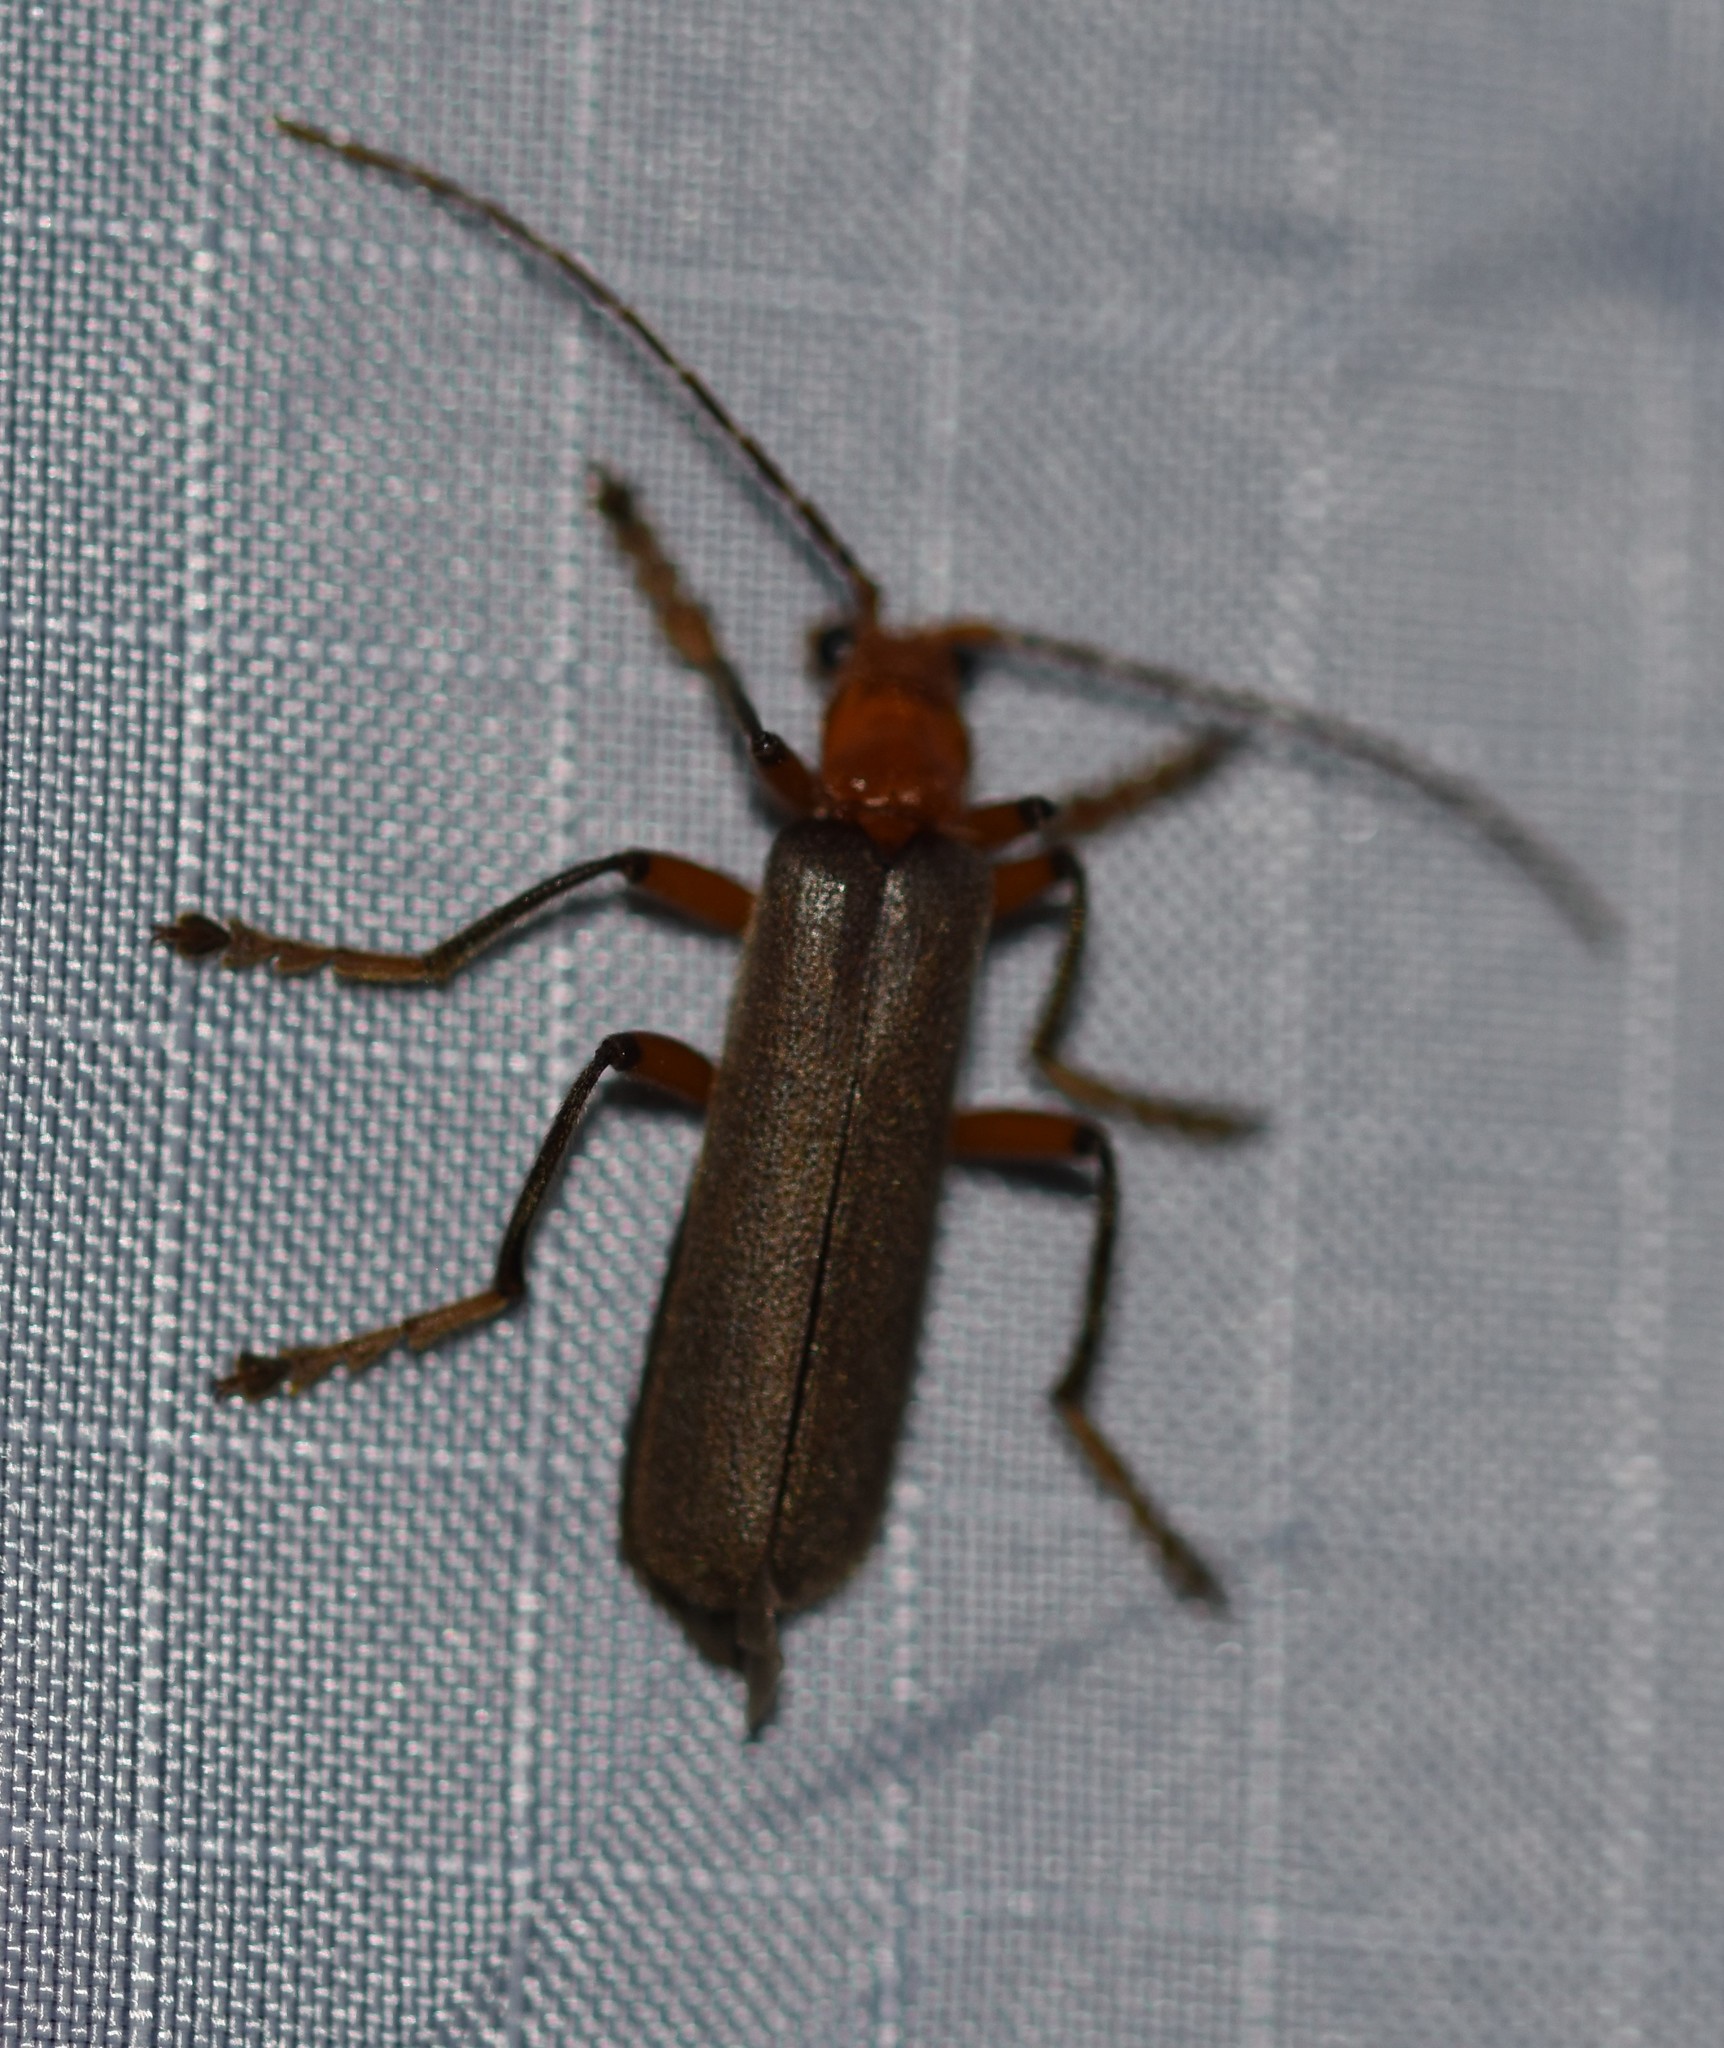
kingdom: Animalia
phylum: Arthropoda
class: Insecta
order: Coleoptera
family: Cantharidae
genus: Pacificanthia
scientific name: Pacificanthia consors
